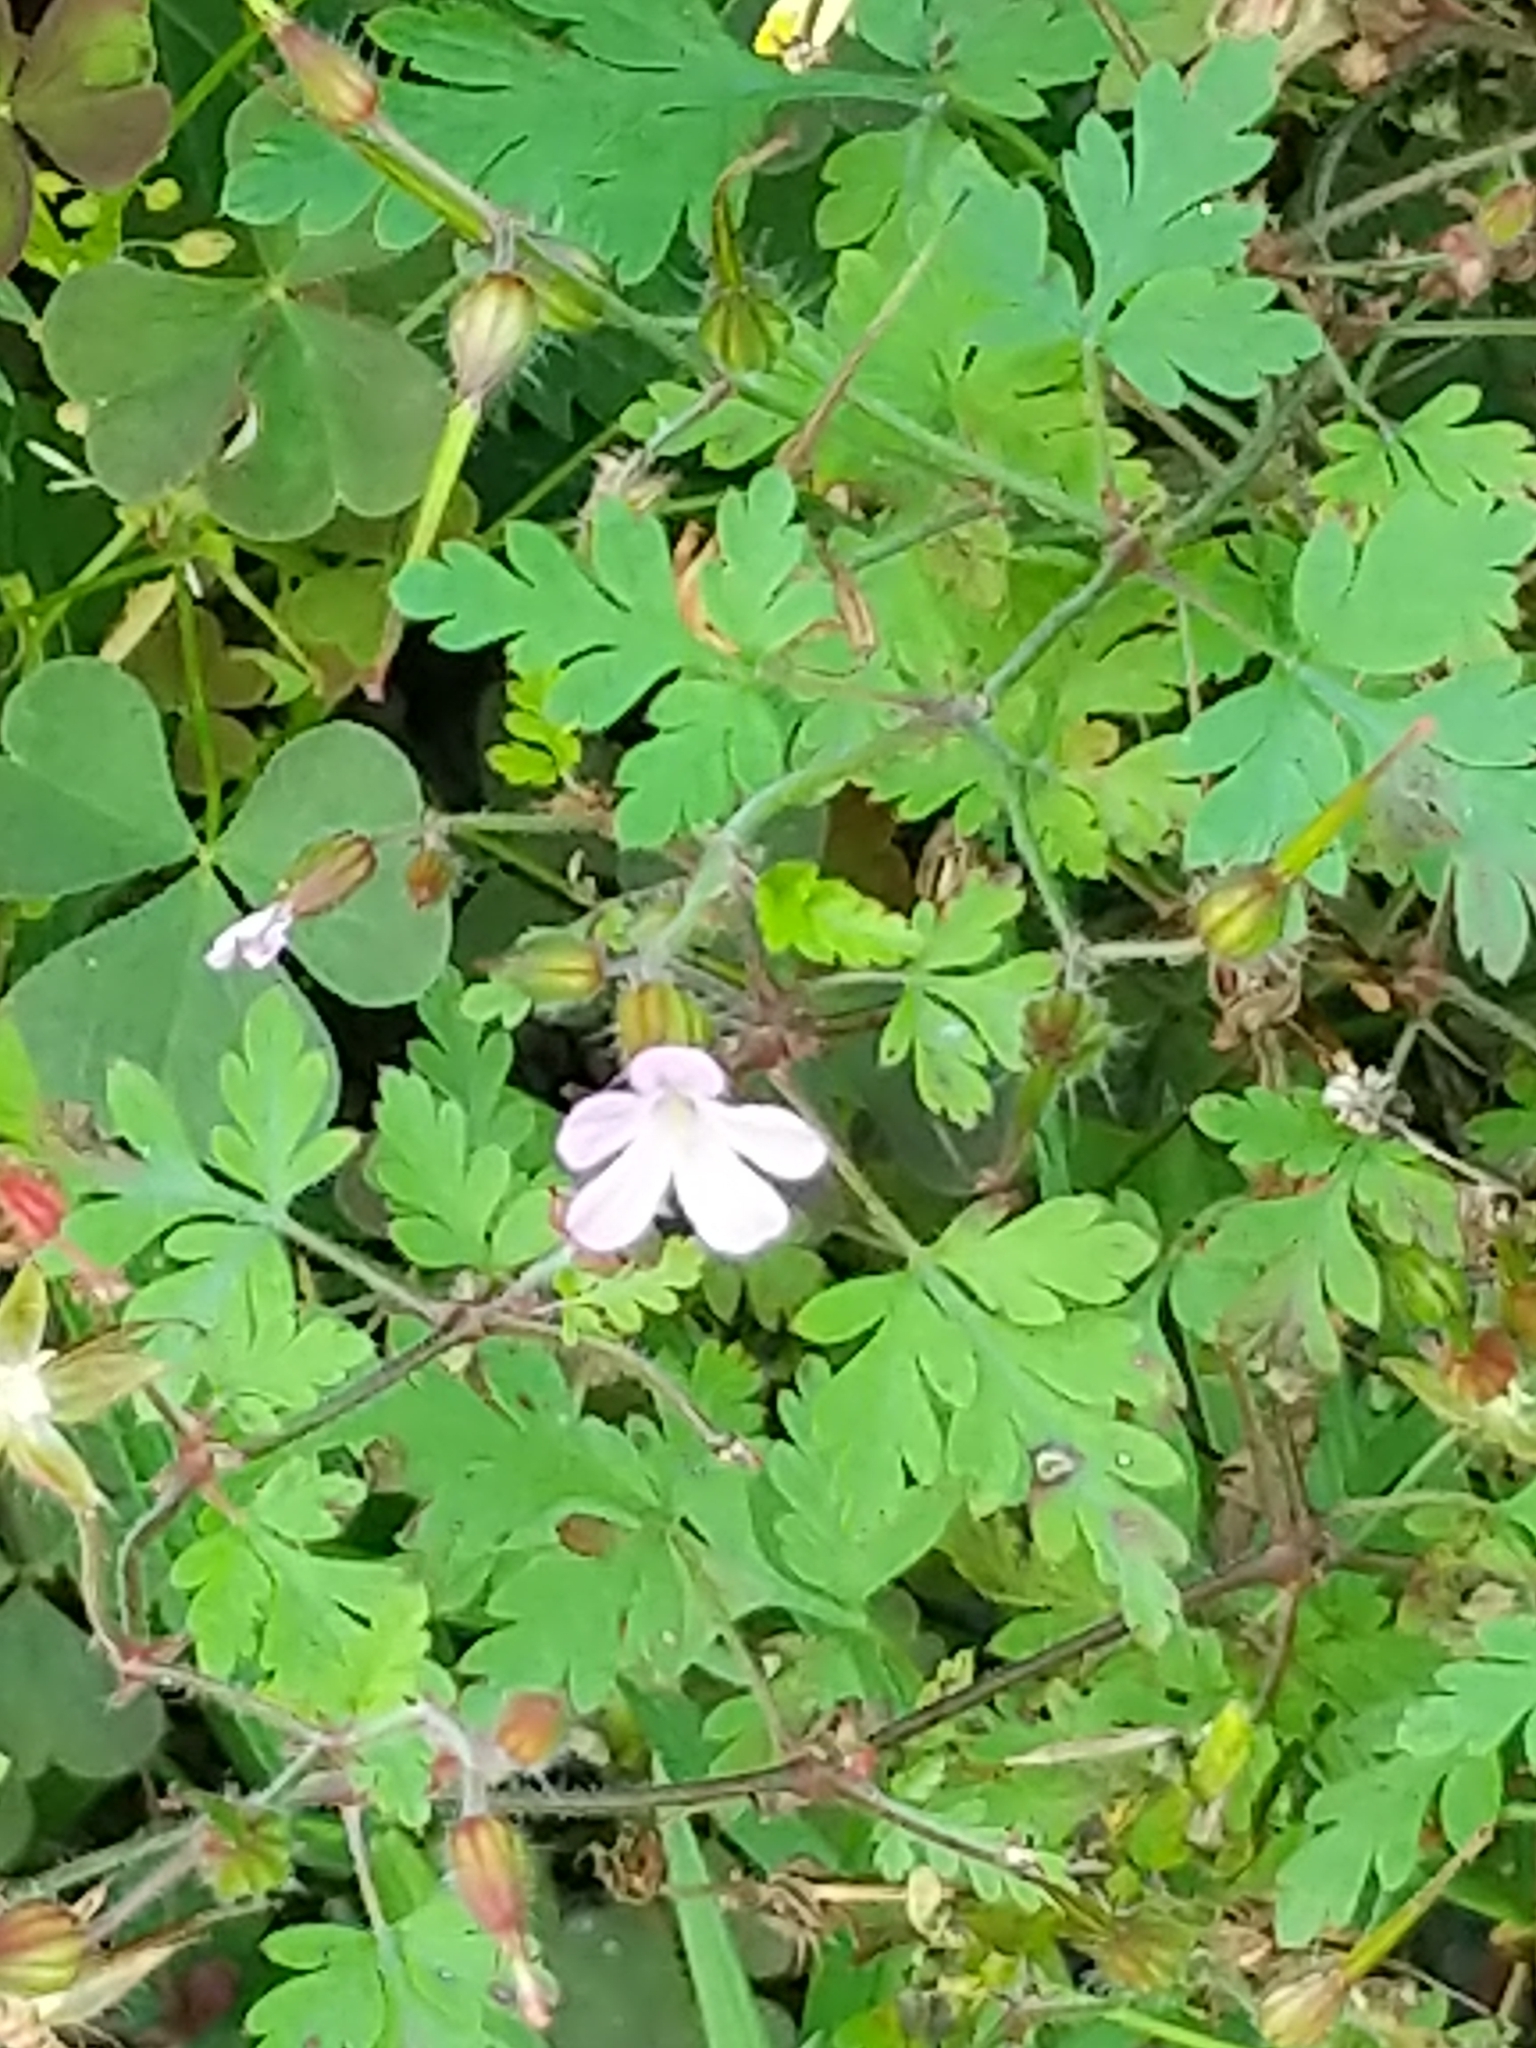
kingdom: Plantae
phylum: Tracheophyta
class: Magnoliopsida
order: Geraniales
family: Geraniaceae
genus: Geranium
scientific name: Geranium robertianum
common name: Herb-robert
